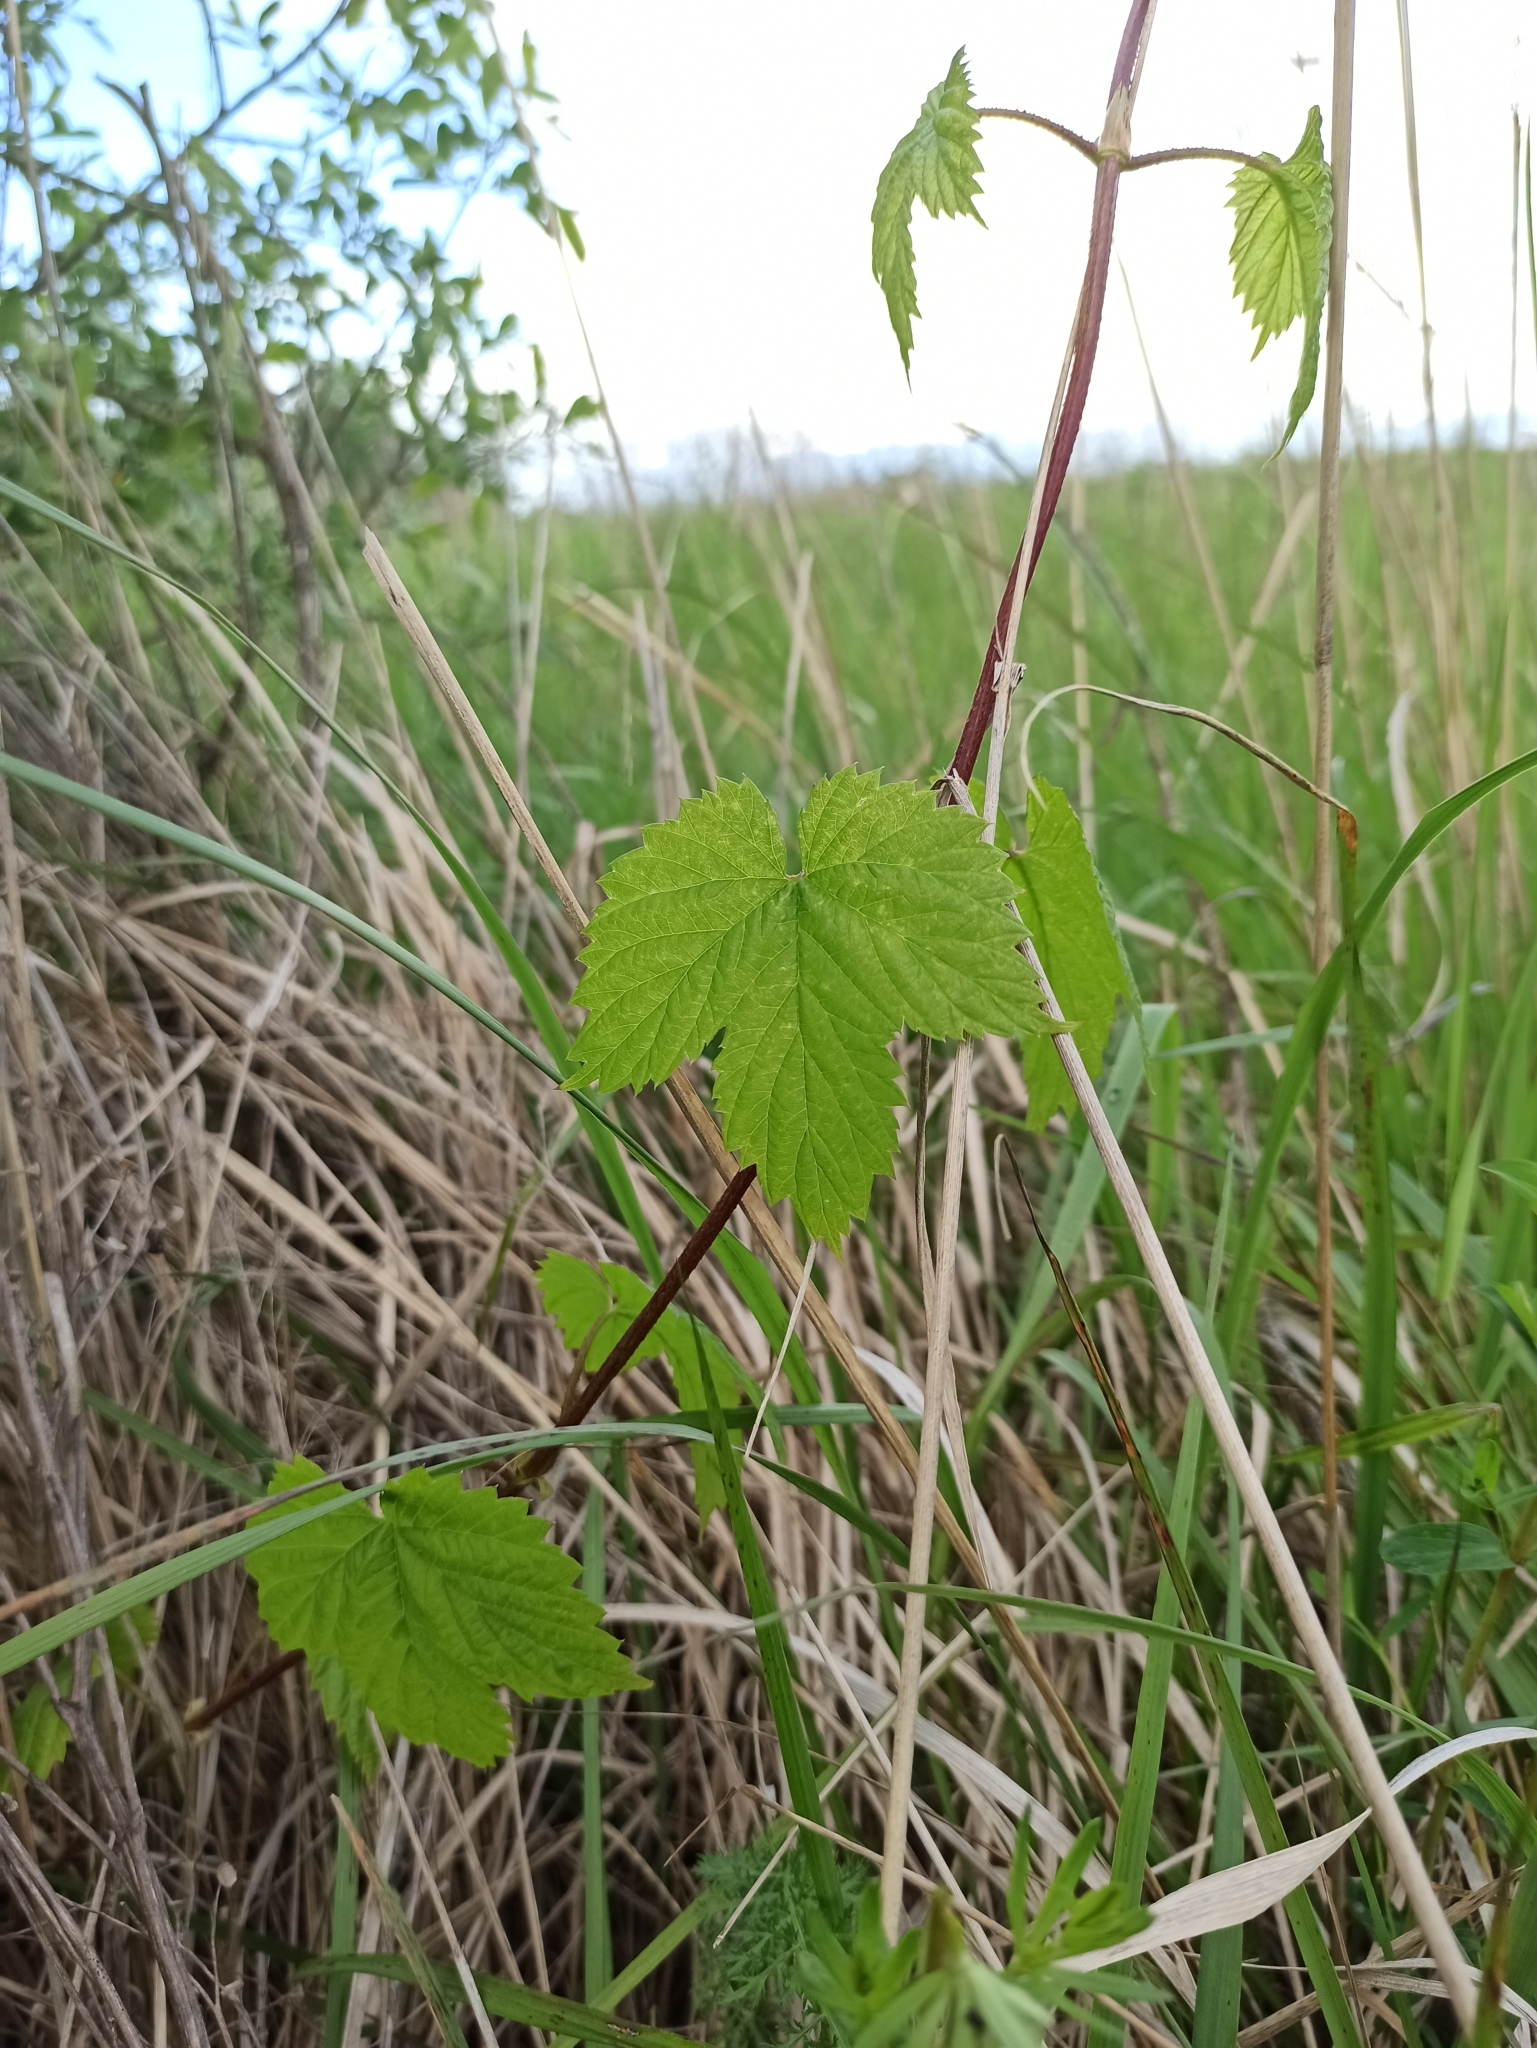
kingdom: Plantae
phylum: Tracheophyta
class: Magnoliopsida
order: Rosales
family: Cannabaceae
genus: Humulus
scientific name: Humulus lupulus
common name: Hop
